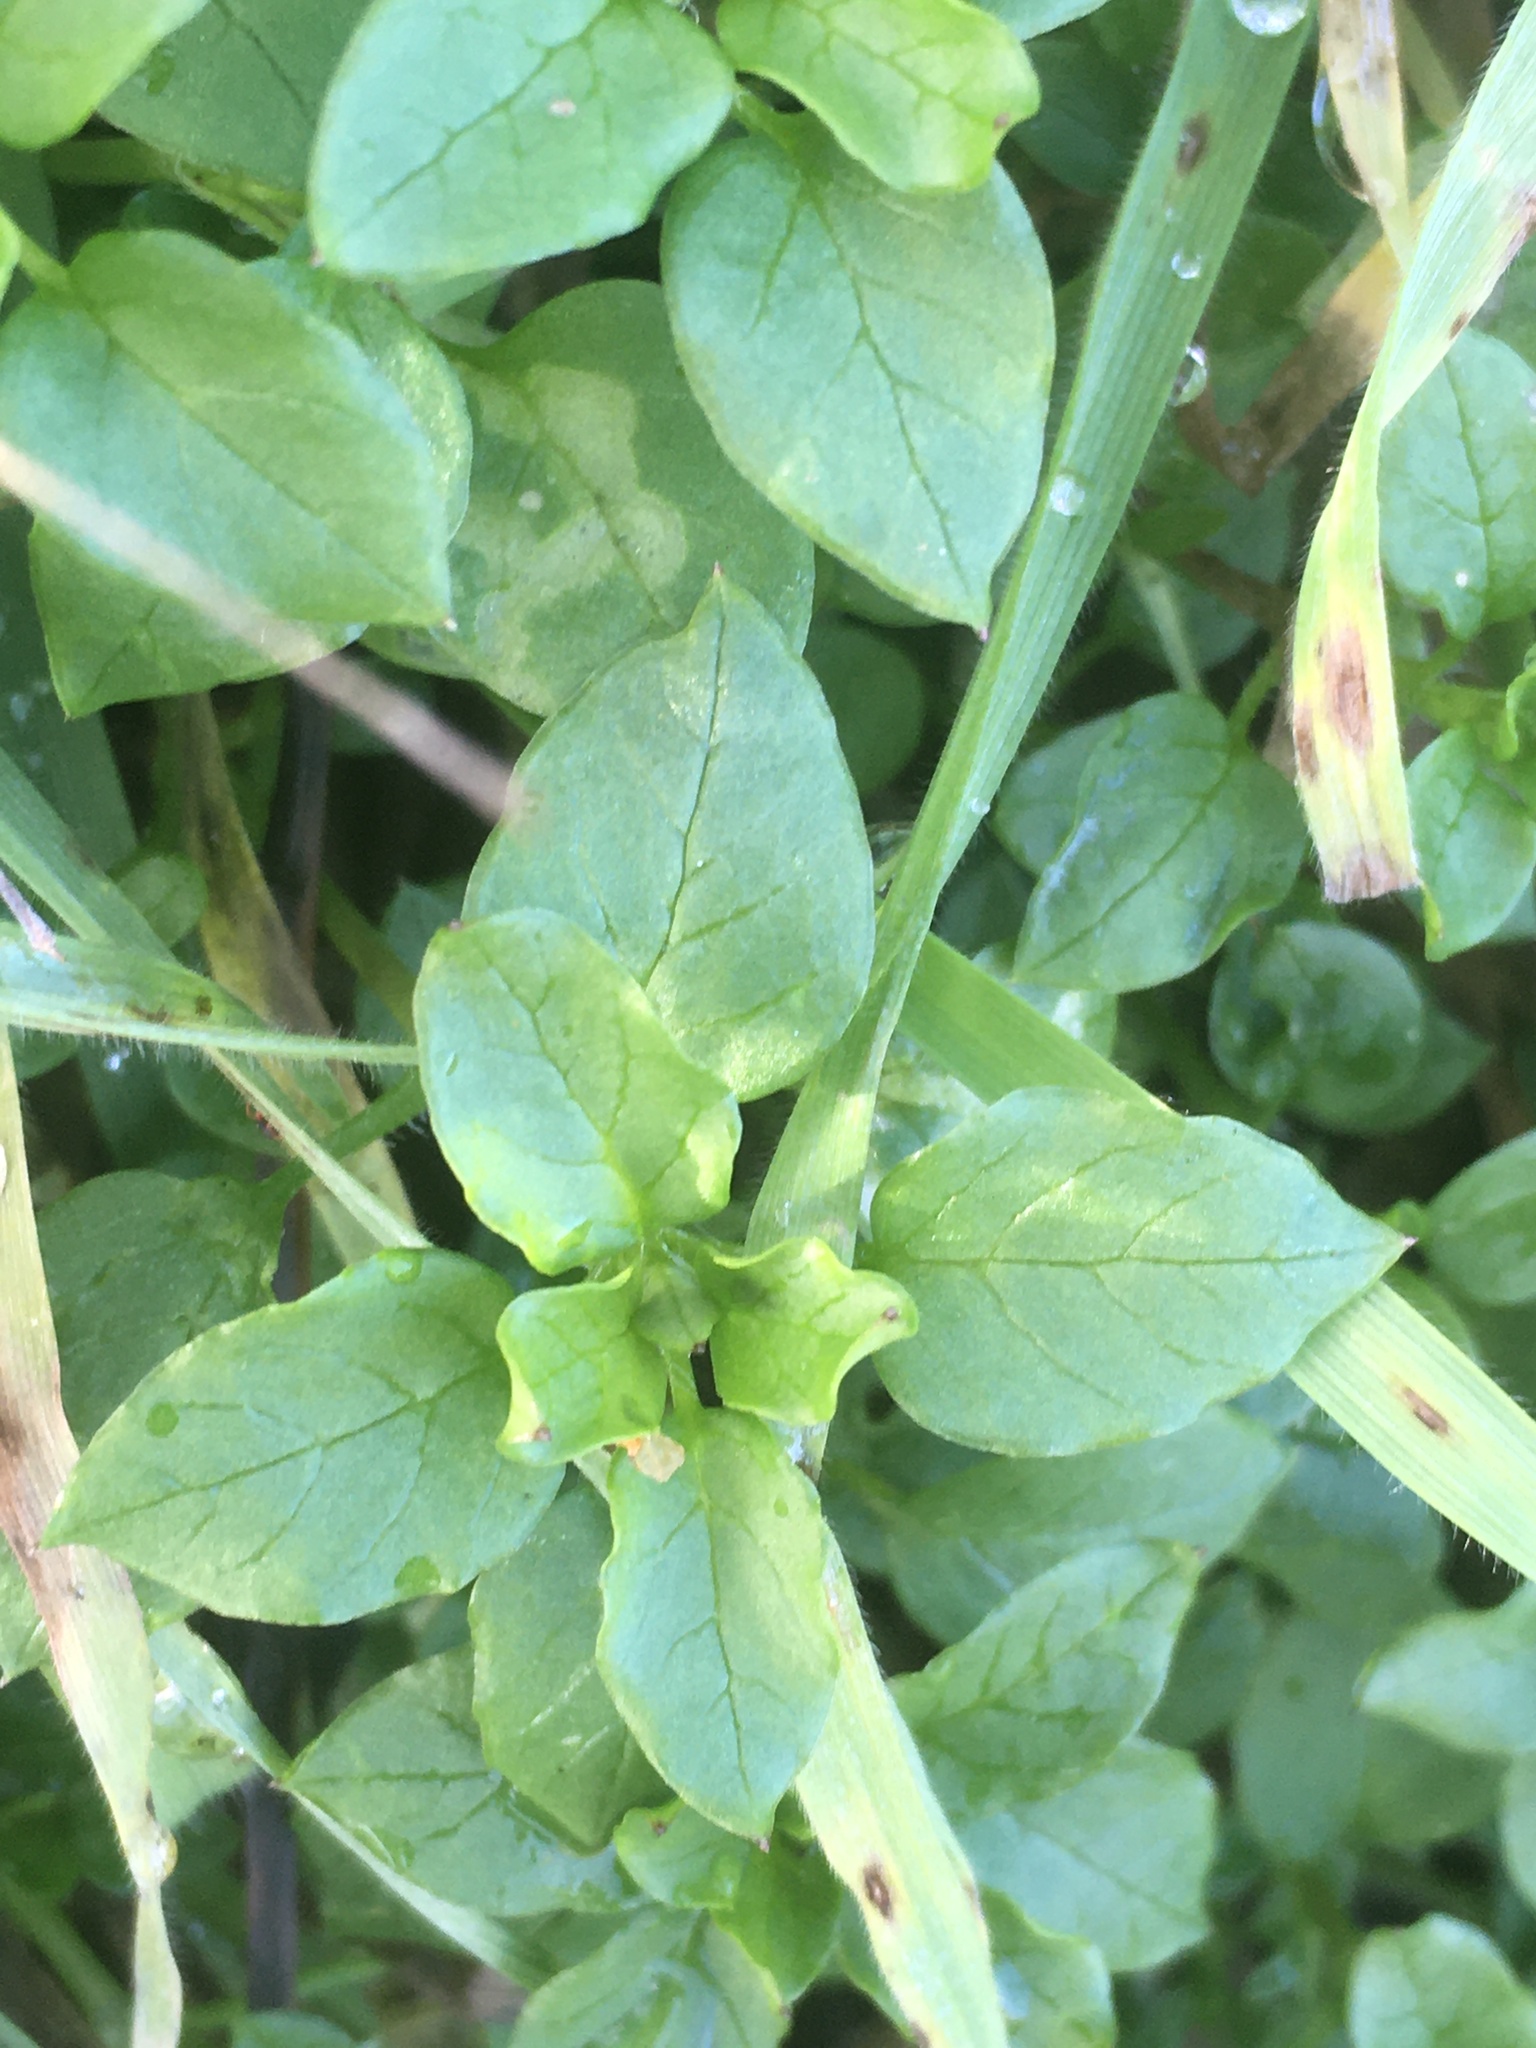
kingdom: Plantae
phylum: Tracheophyta
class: Magnoliopsida
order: Caryophyllales
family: Caryophyllaceae
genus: Stellaria
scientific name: Stellaria media
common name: Common chickweed
